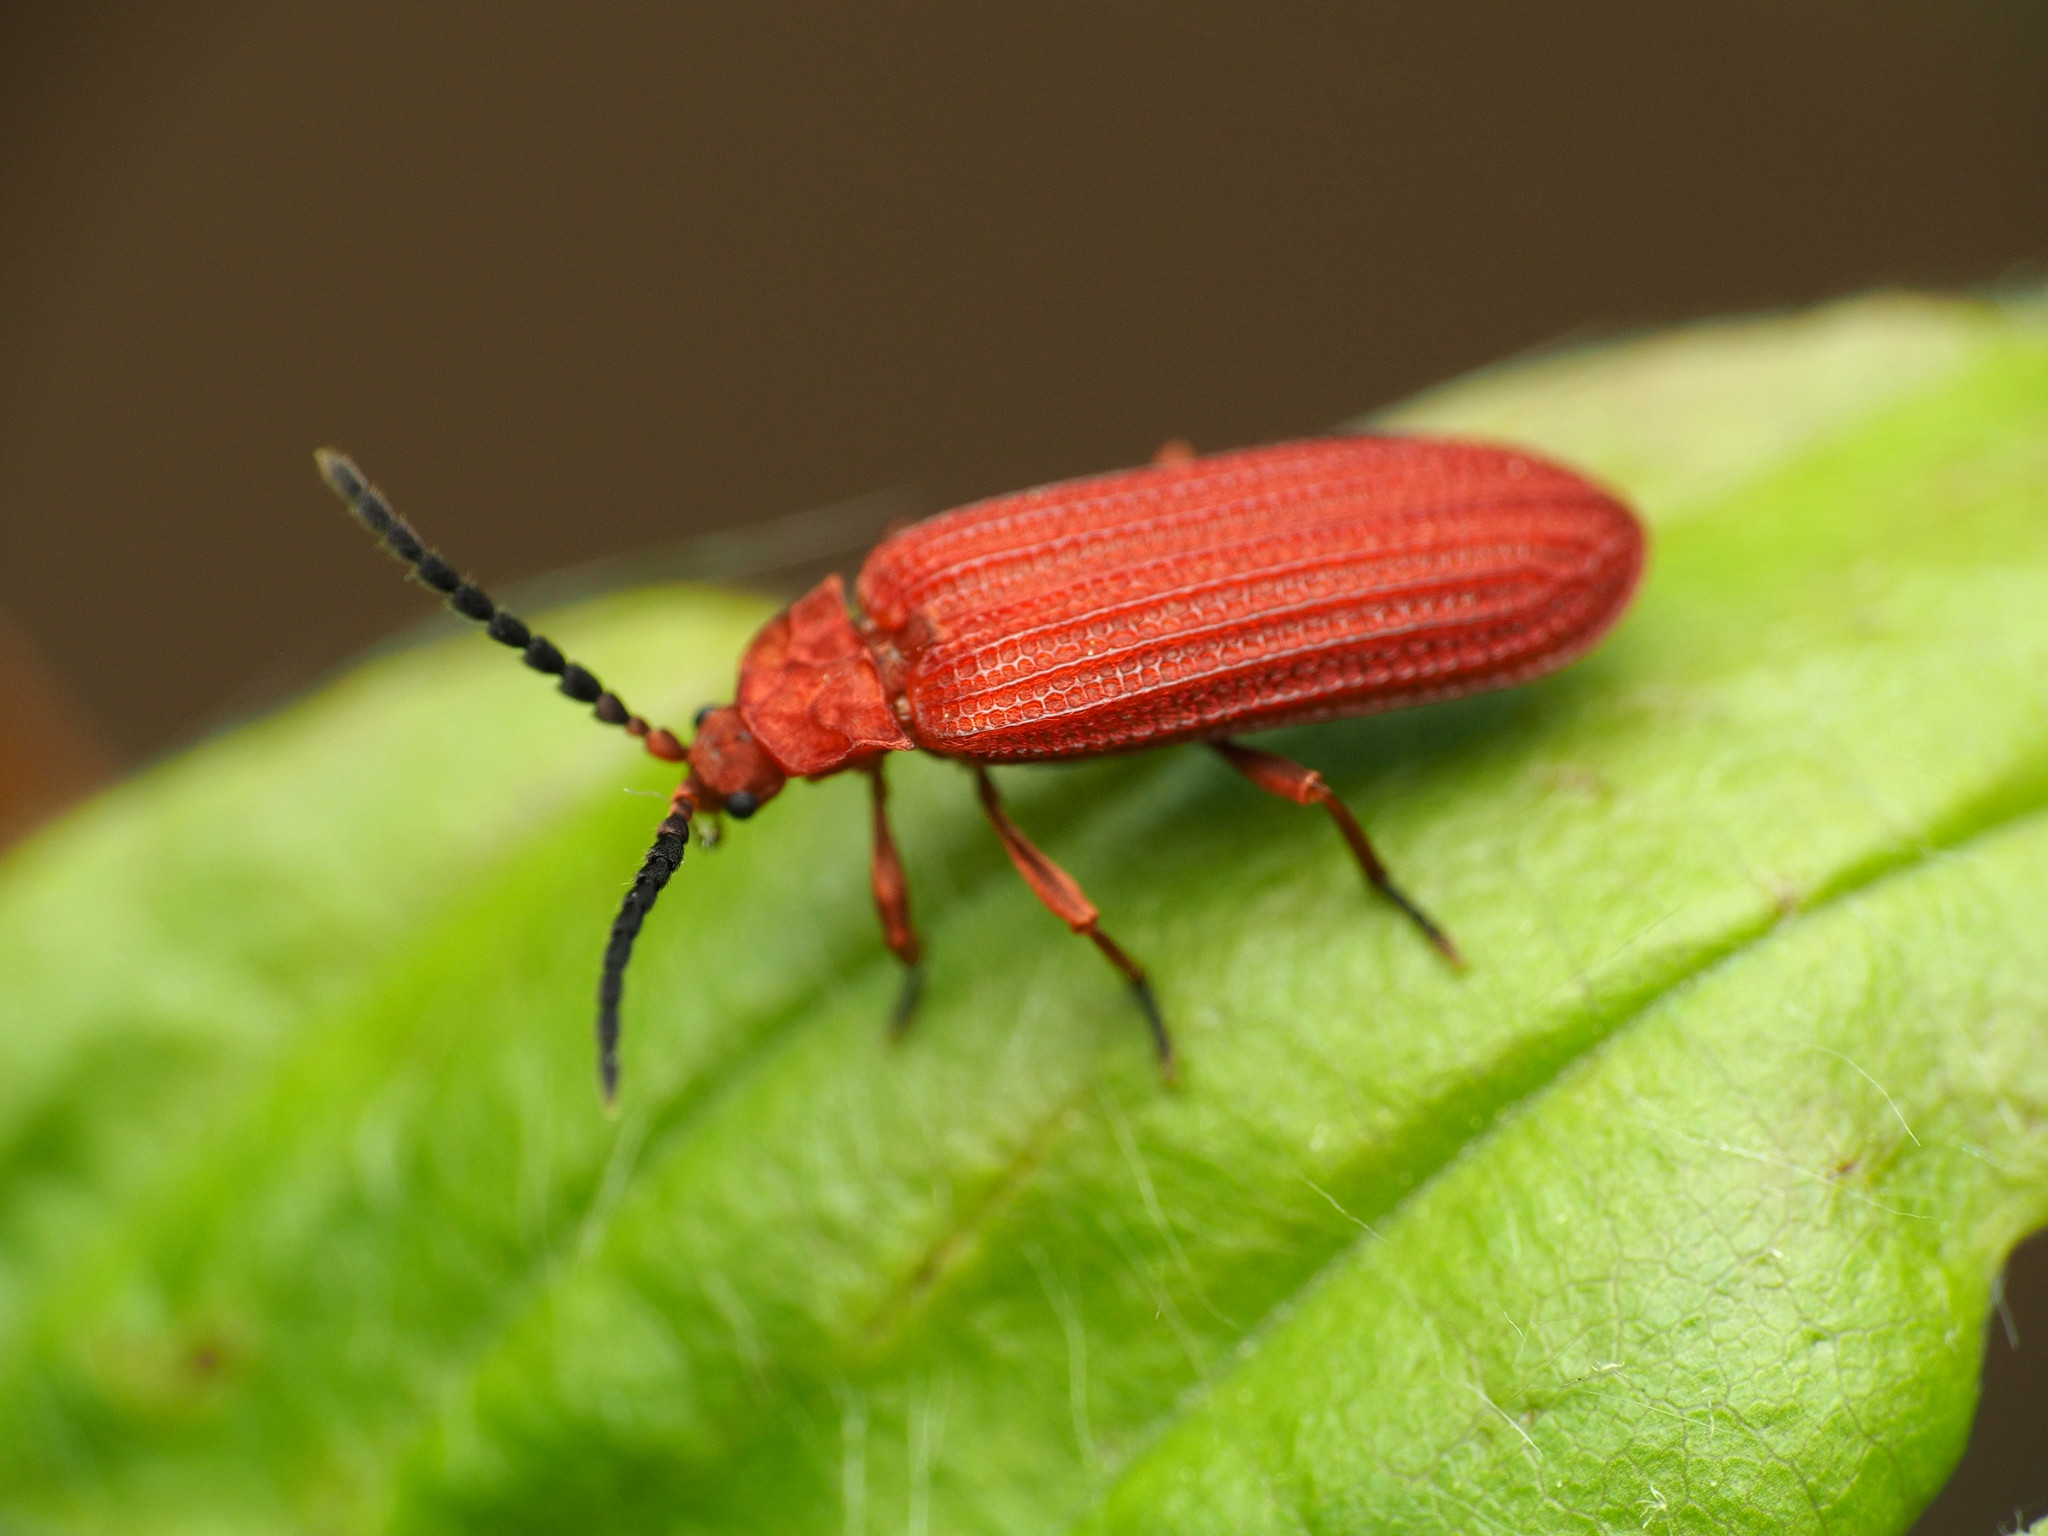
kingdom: Animalia
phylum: Arthropoda
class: Insecta
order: Coleoptera
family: Lycidae
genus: Punicealis
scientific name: Punicealis
